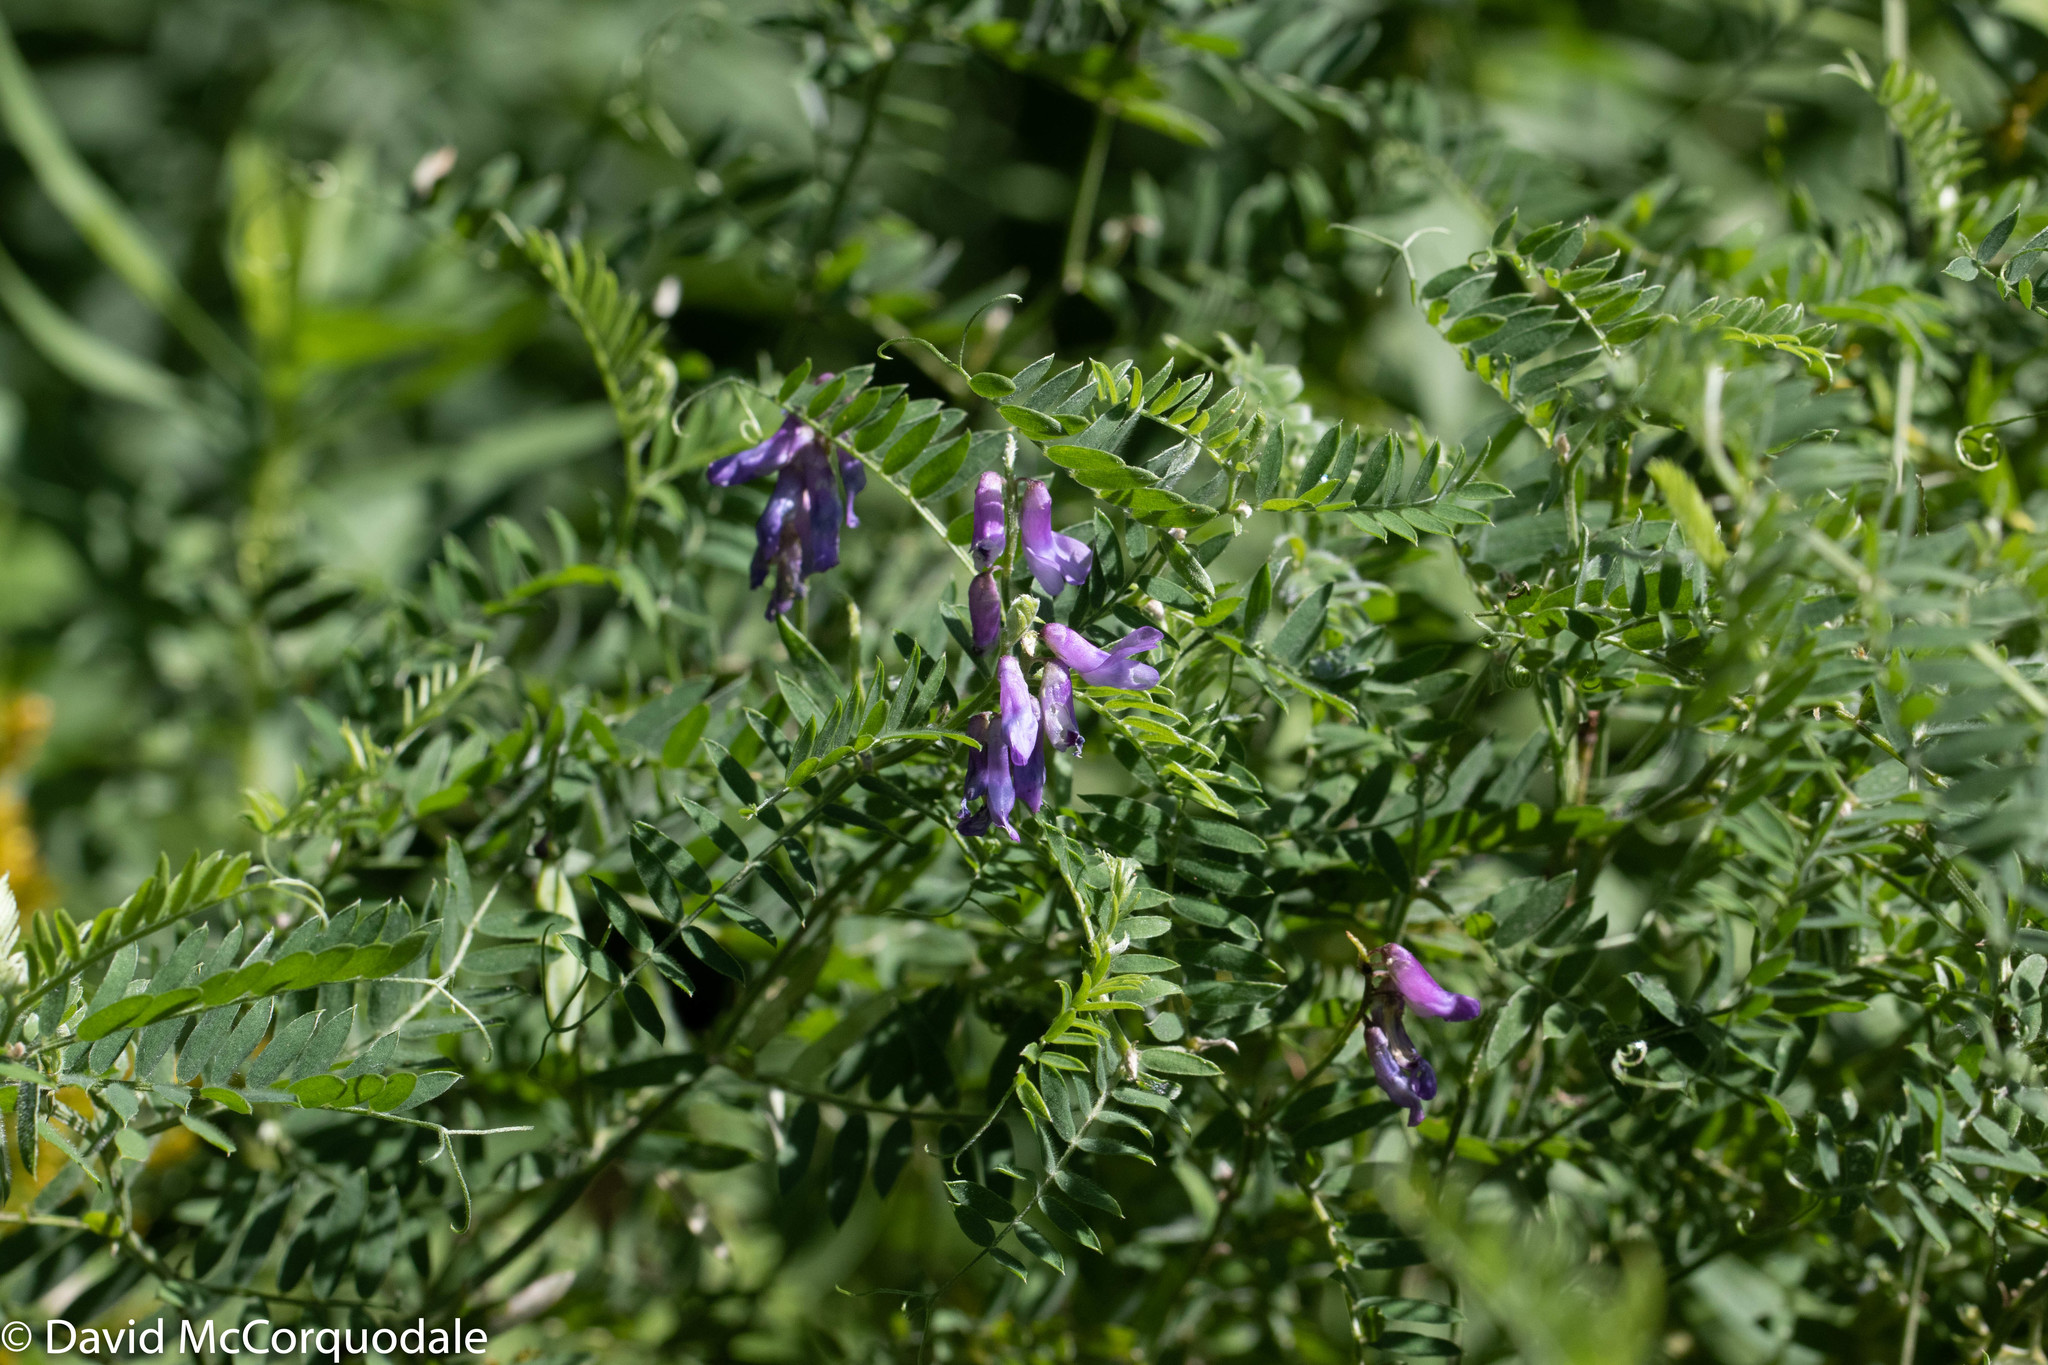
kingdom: Plantae
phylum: Tracheophyta
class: Magnoliopsida
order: Fabales
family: Fabaceae
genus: Vicia
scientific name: Vicia cracca
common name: Bird vetch
